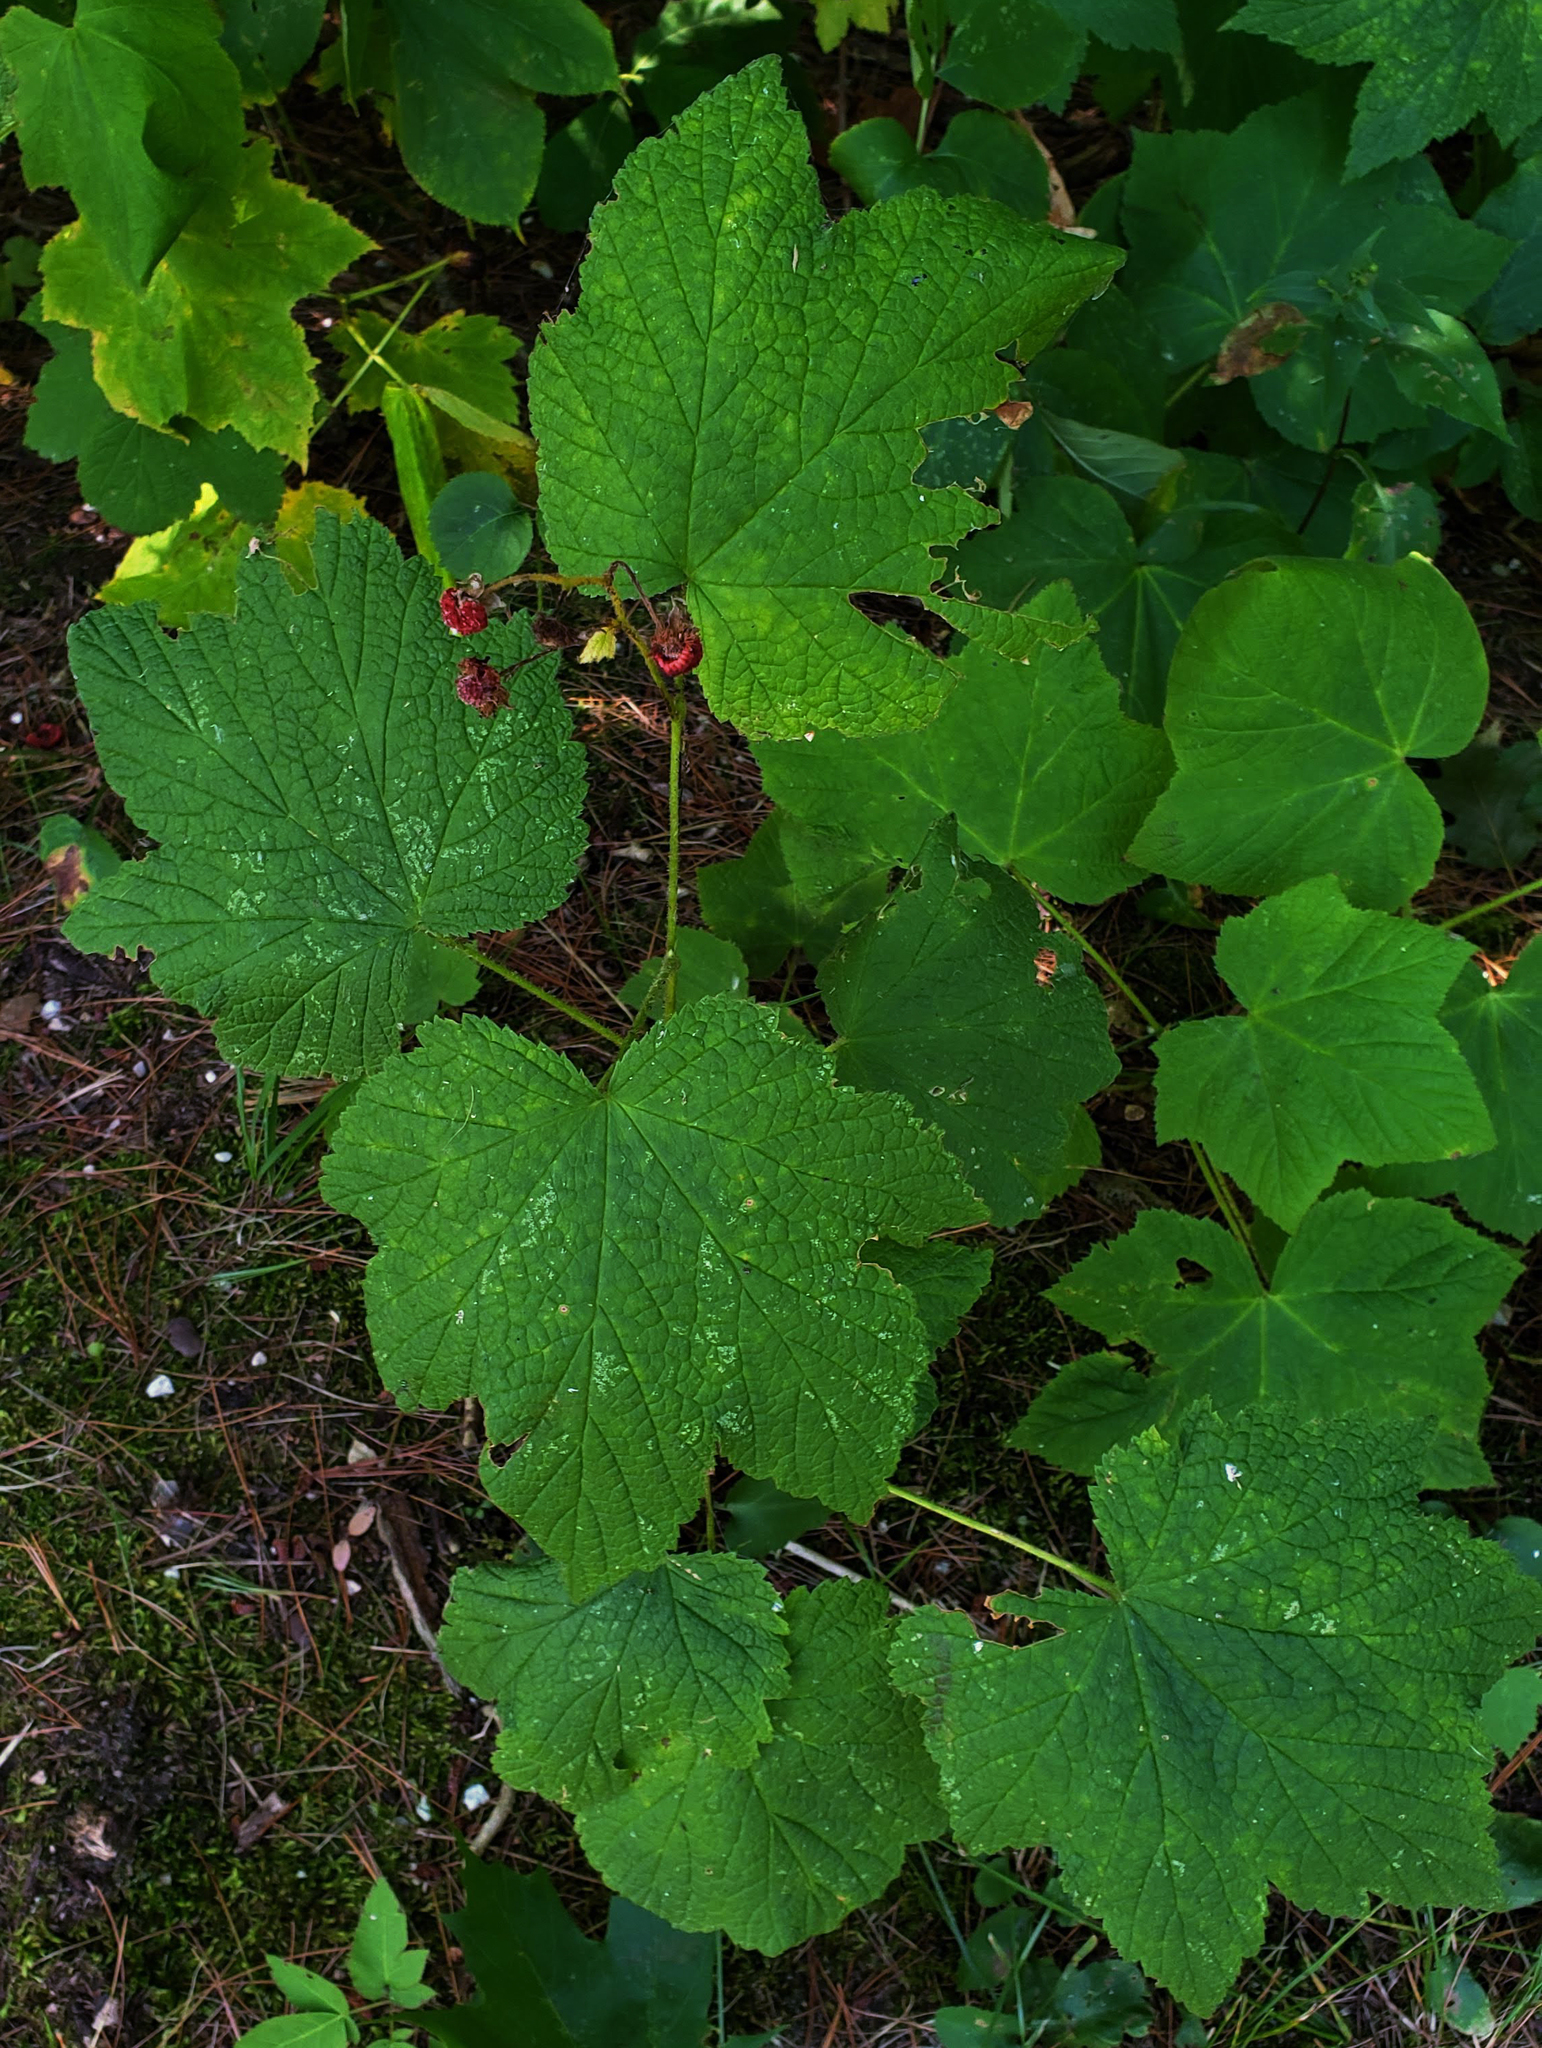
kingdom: Plantae
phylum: Tracheophyta
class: Magnoliopsida
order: Rosales
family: Rosaceae
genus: Rubus
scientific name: Rubus parviflorus
